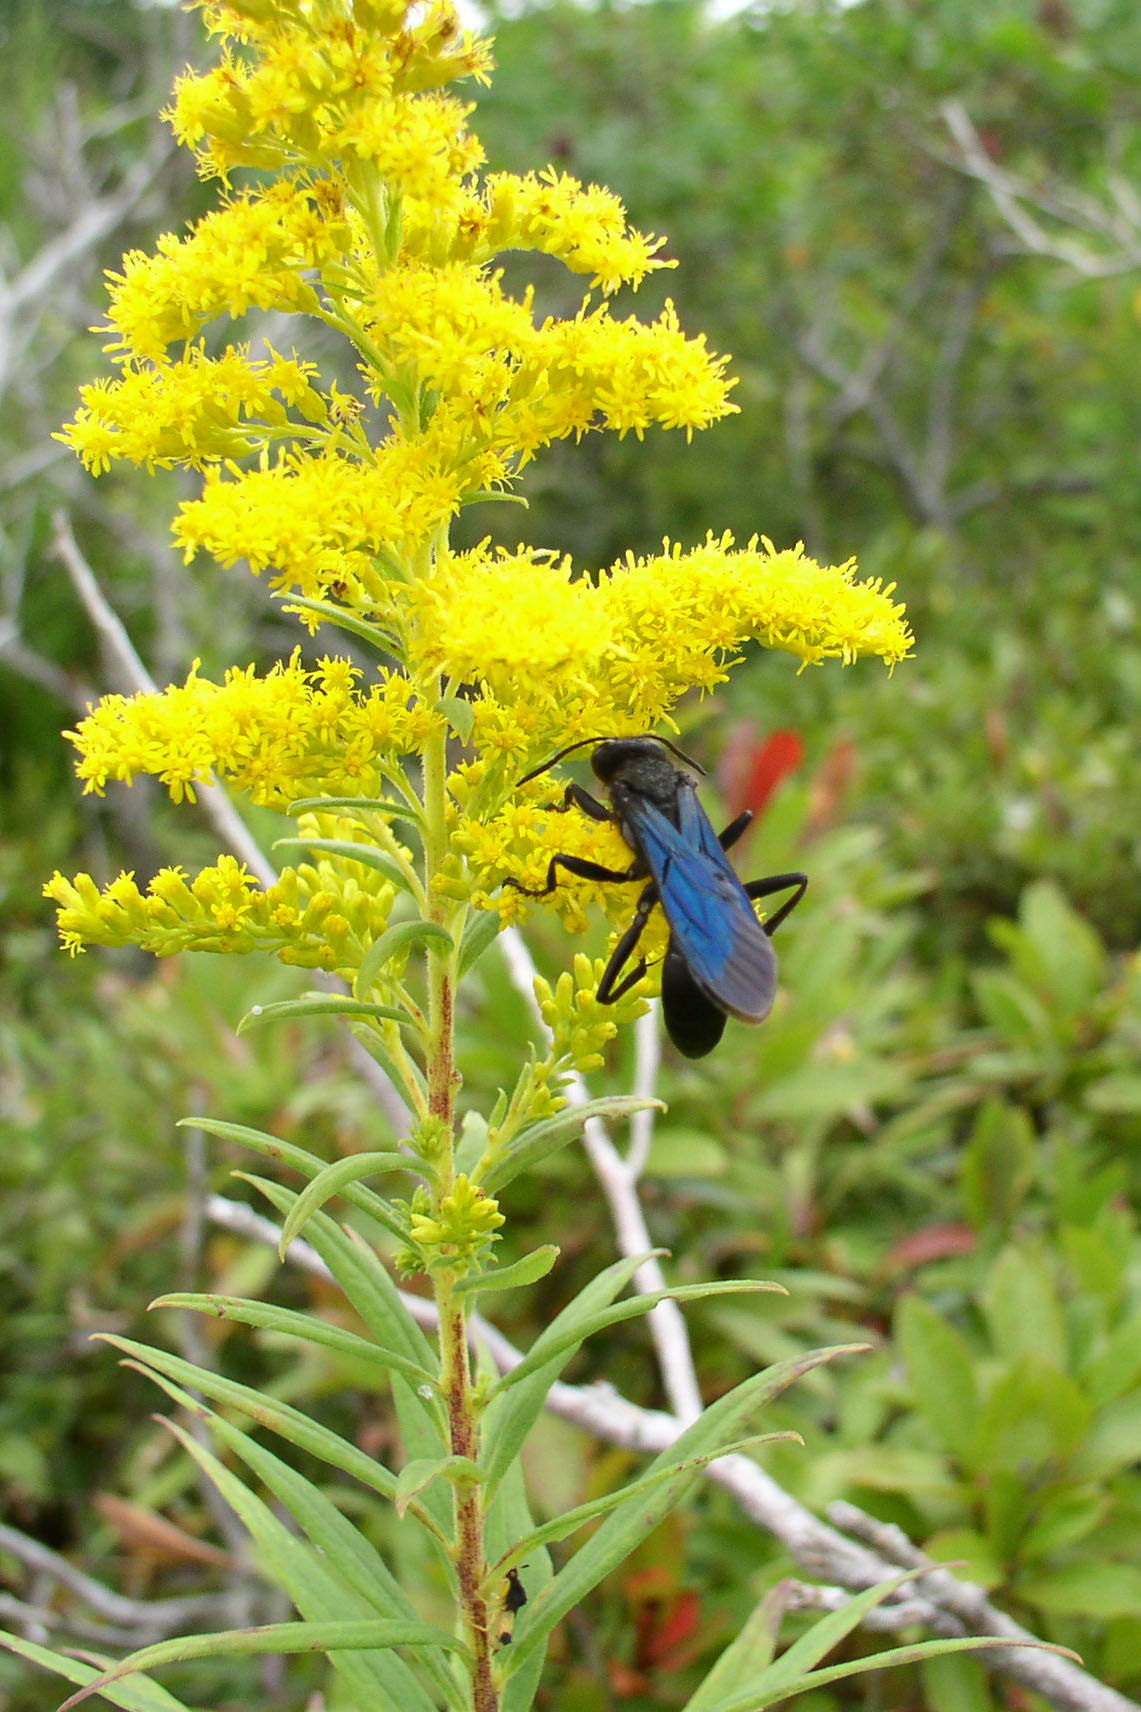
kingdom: Animalia
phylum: Arthropoda
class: Insecta
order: Hymenoptera
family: Sphecidae
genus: Sphex
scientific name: Sphex pensylvanicus
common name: Great black digger wasp
